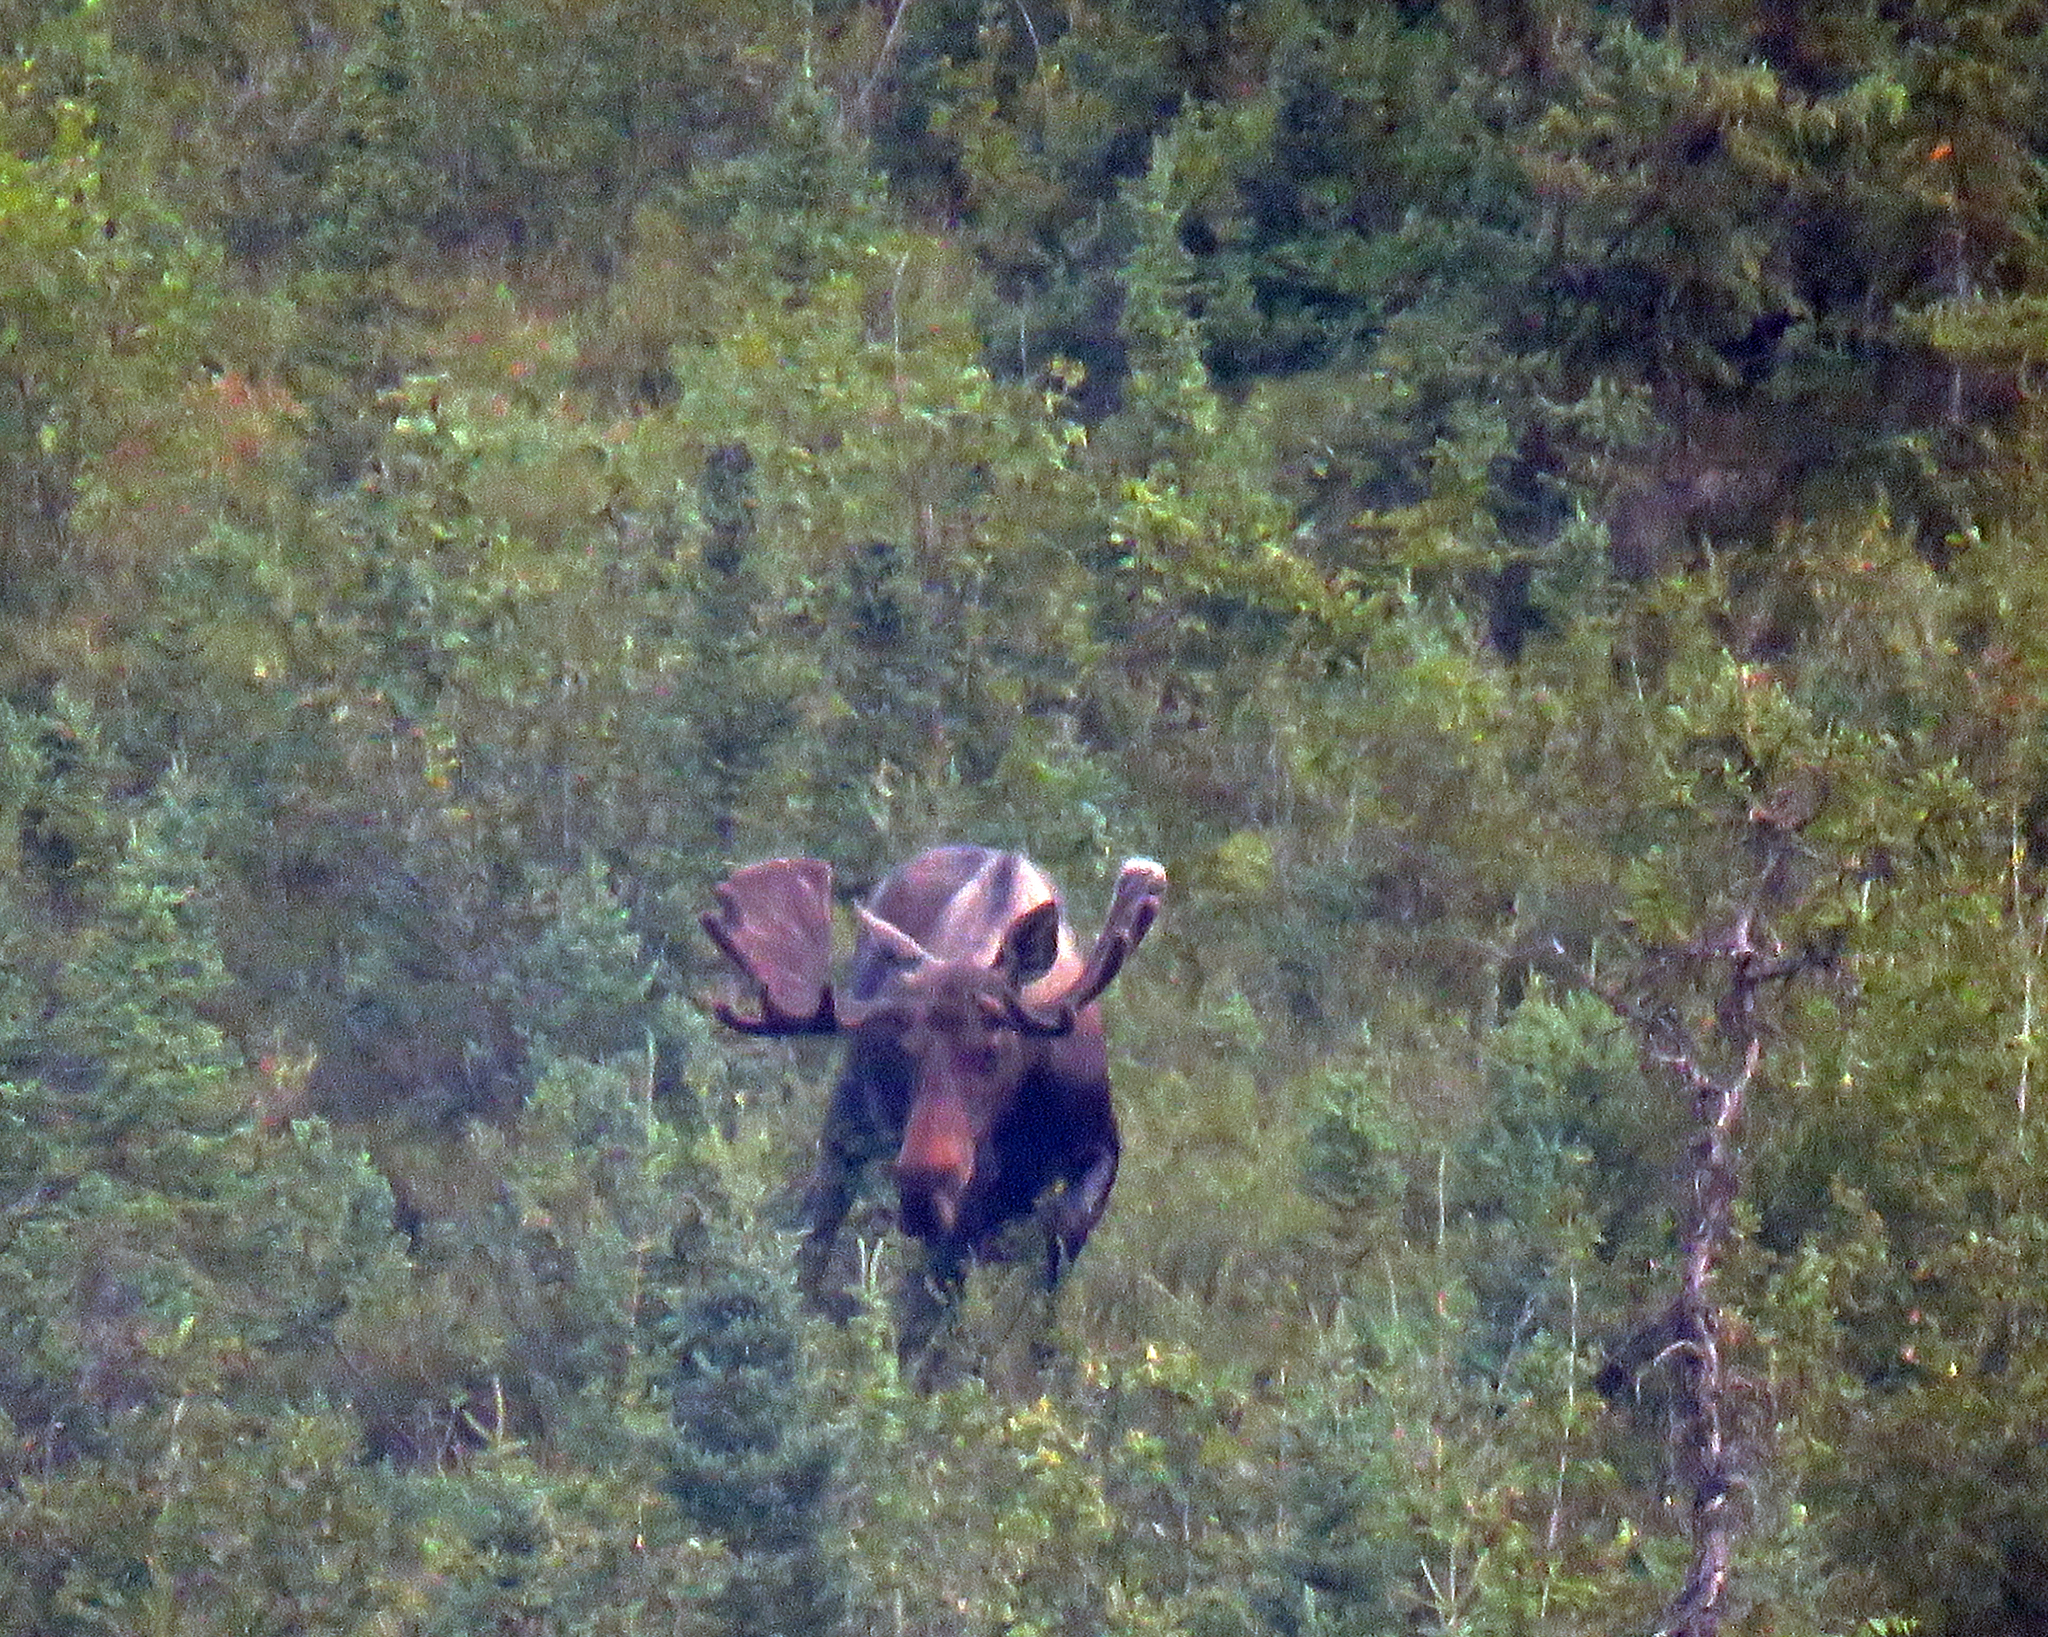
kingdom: Animalia
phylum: Chordata
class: Mammalia
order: Artiodactyla
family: Cervidae
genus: Alces
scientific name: Alces alces
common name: Moose
